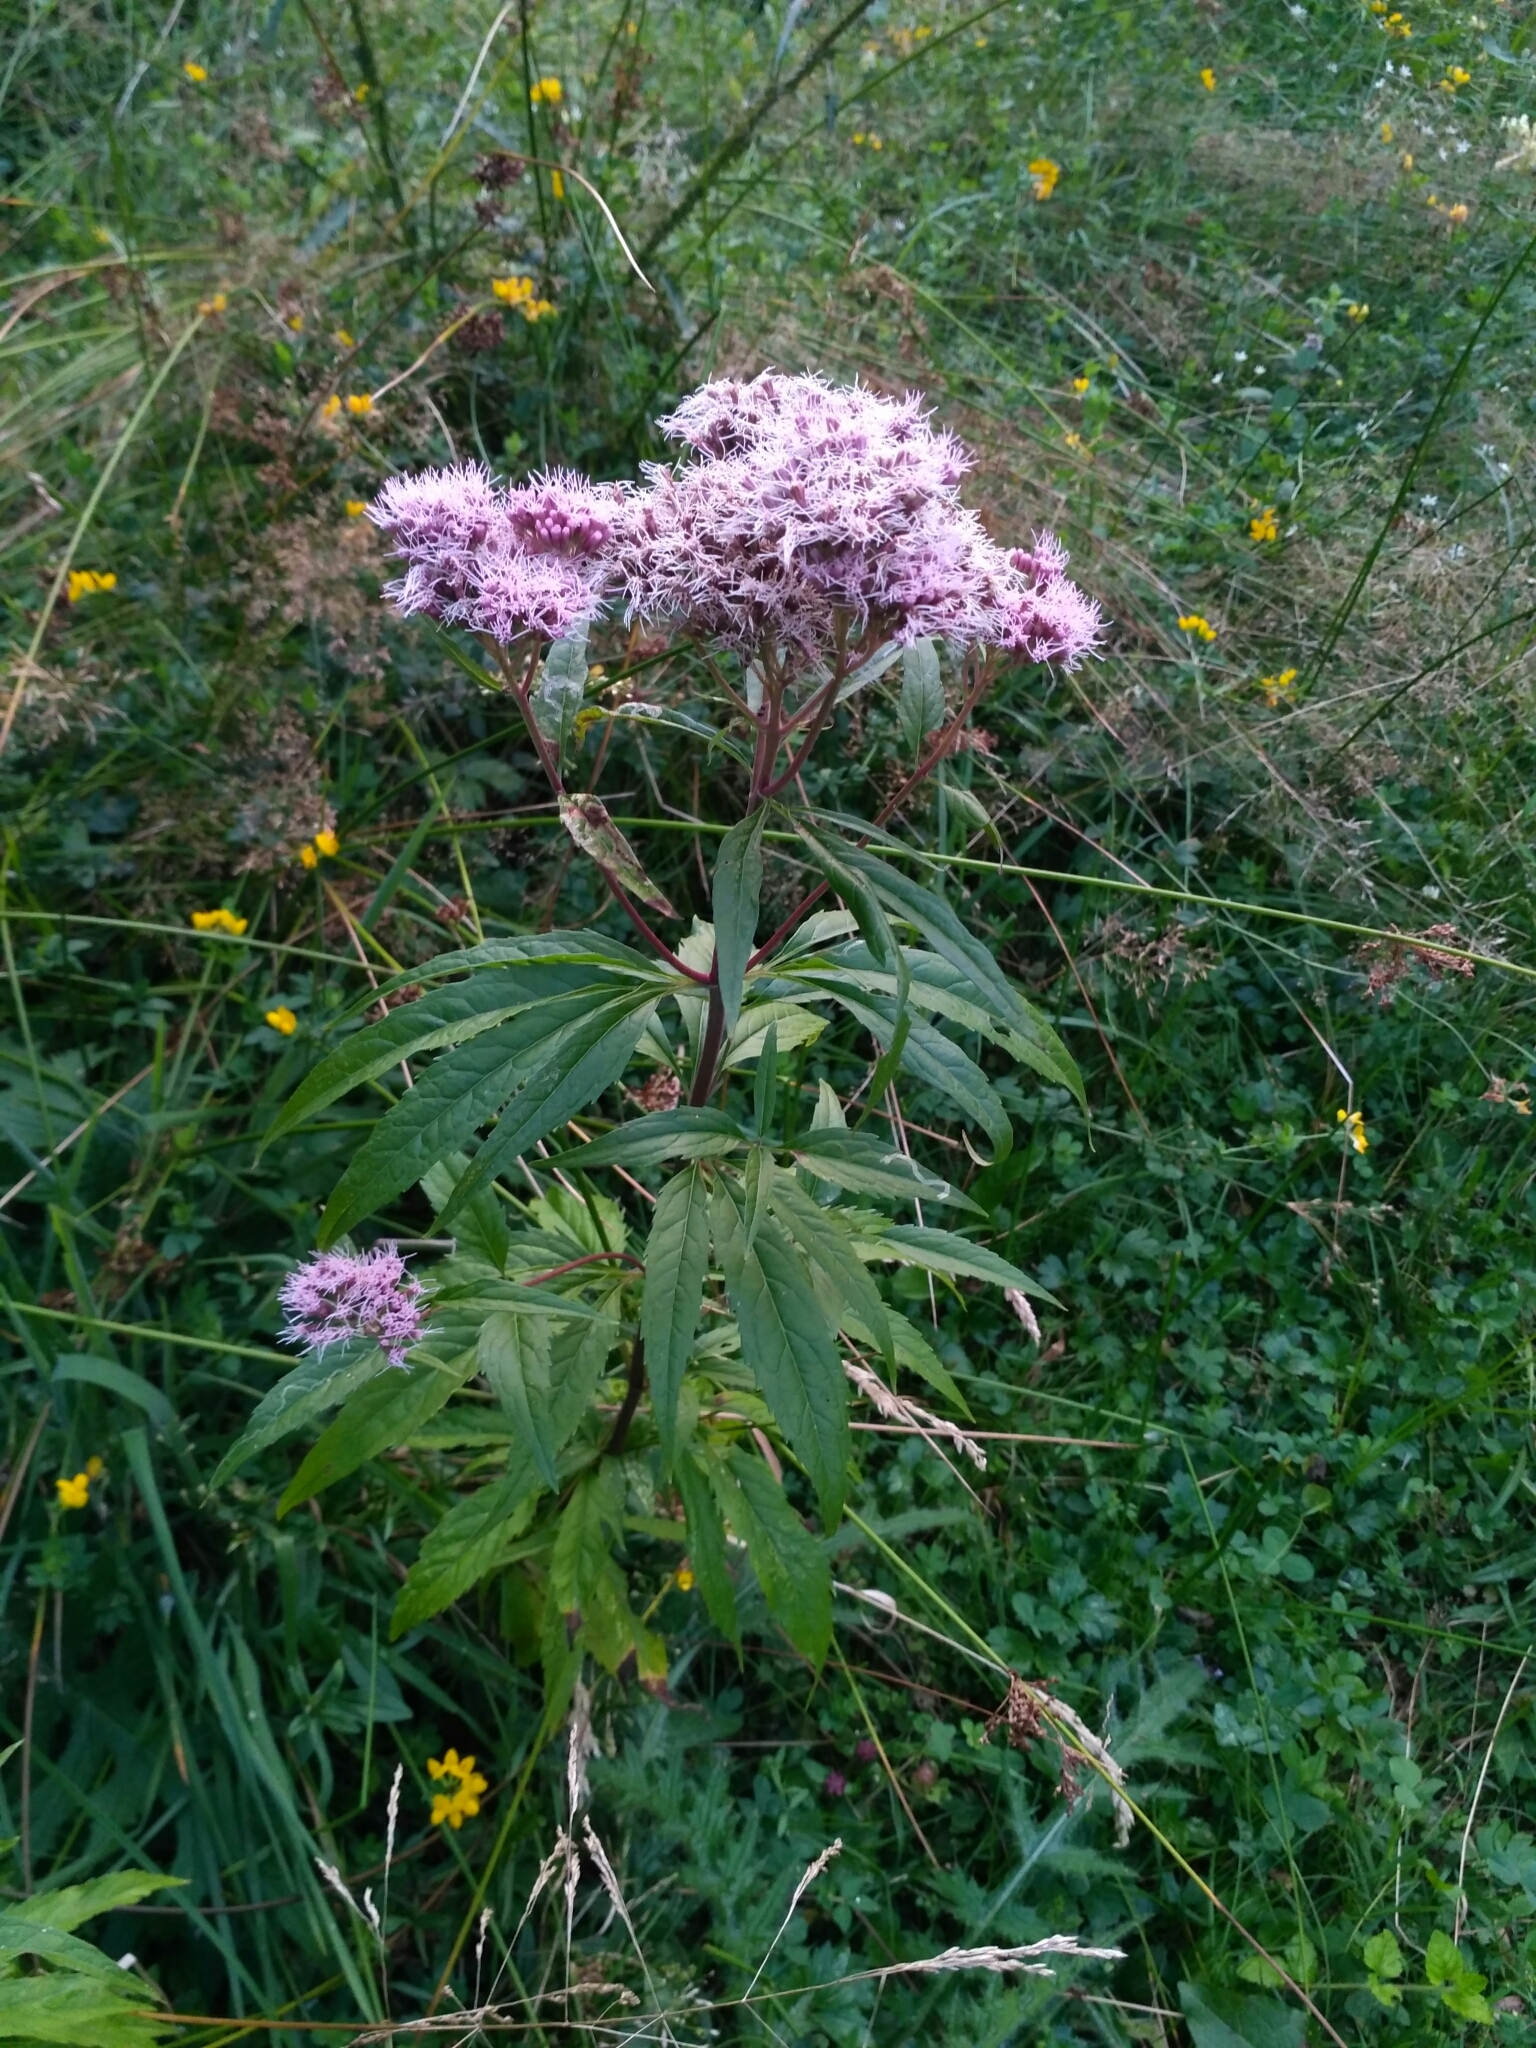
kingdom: Plantae
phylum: Tracheophyta
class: Magnoliopsida
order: Asterales
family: Asteraceae
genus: Eupatorium
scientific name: Eupatorium cannabinum
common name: Hemp-agrimony
